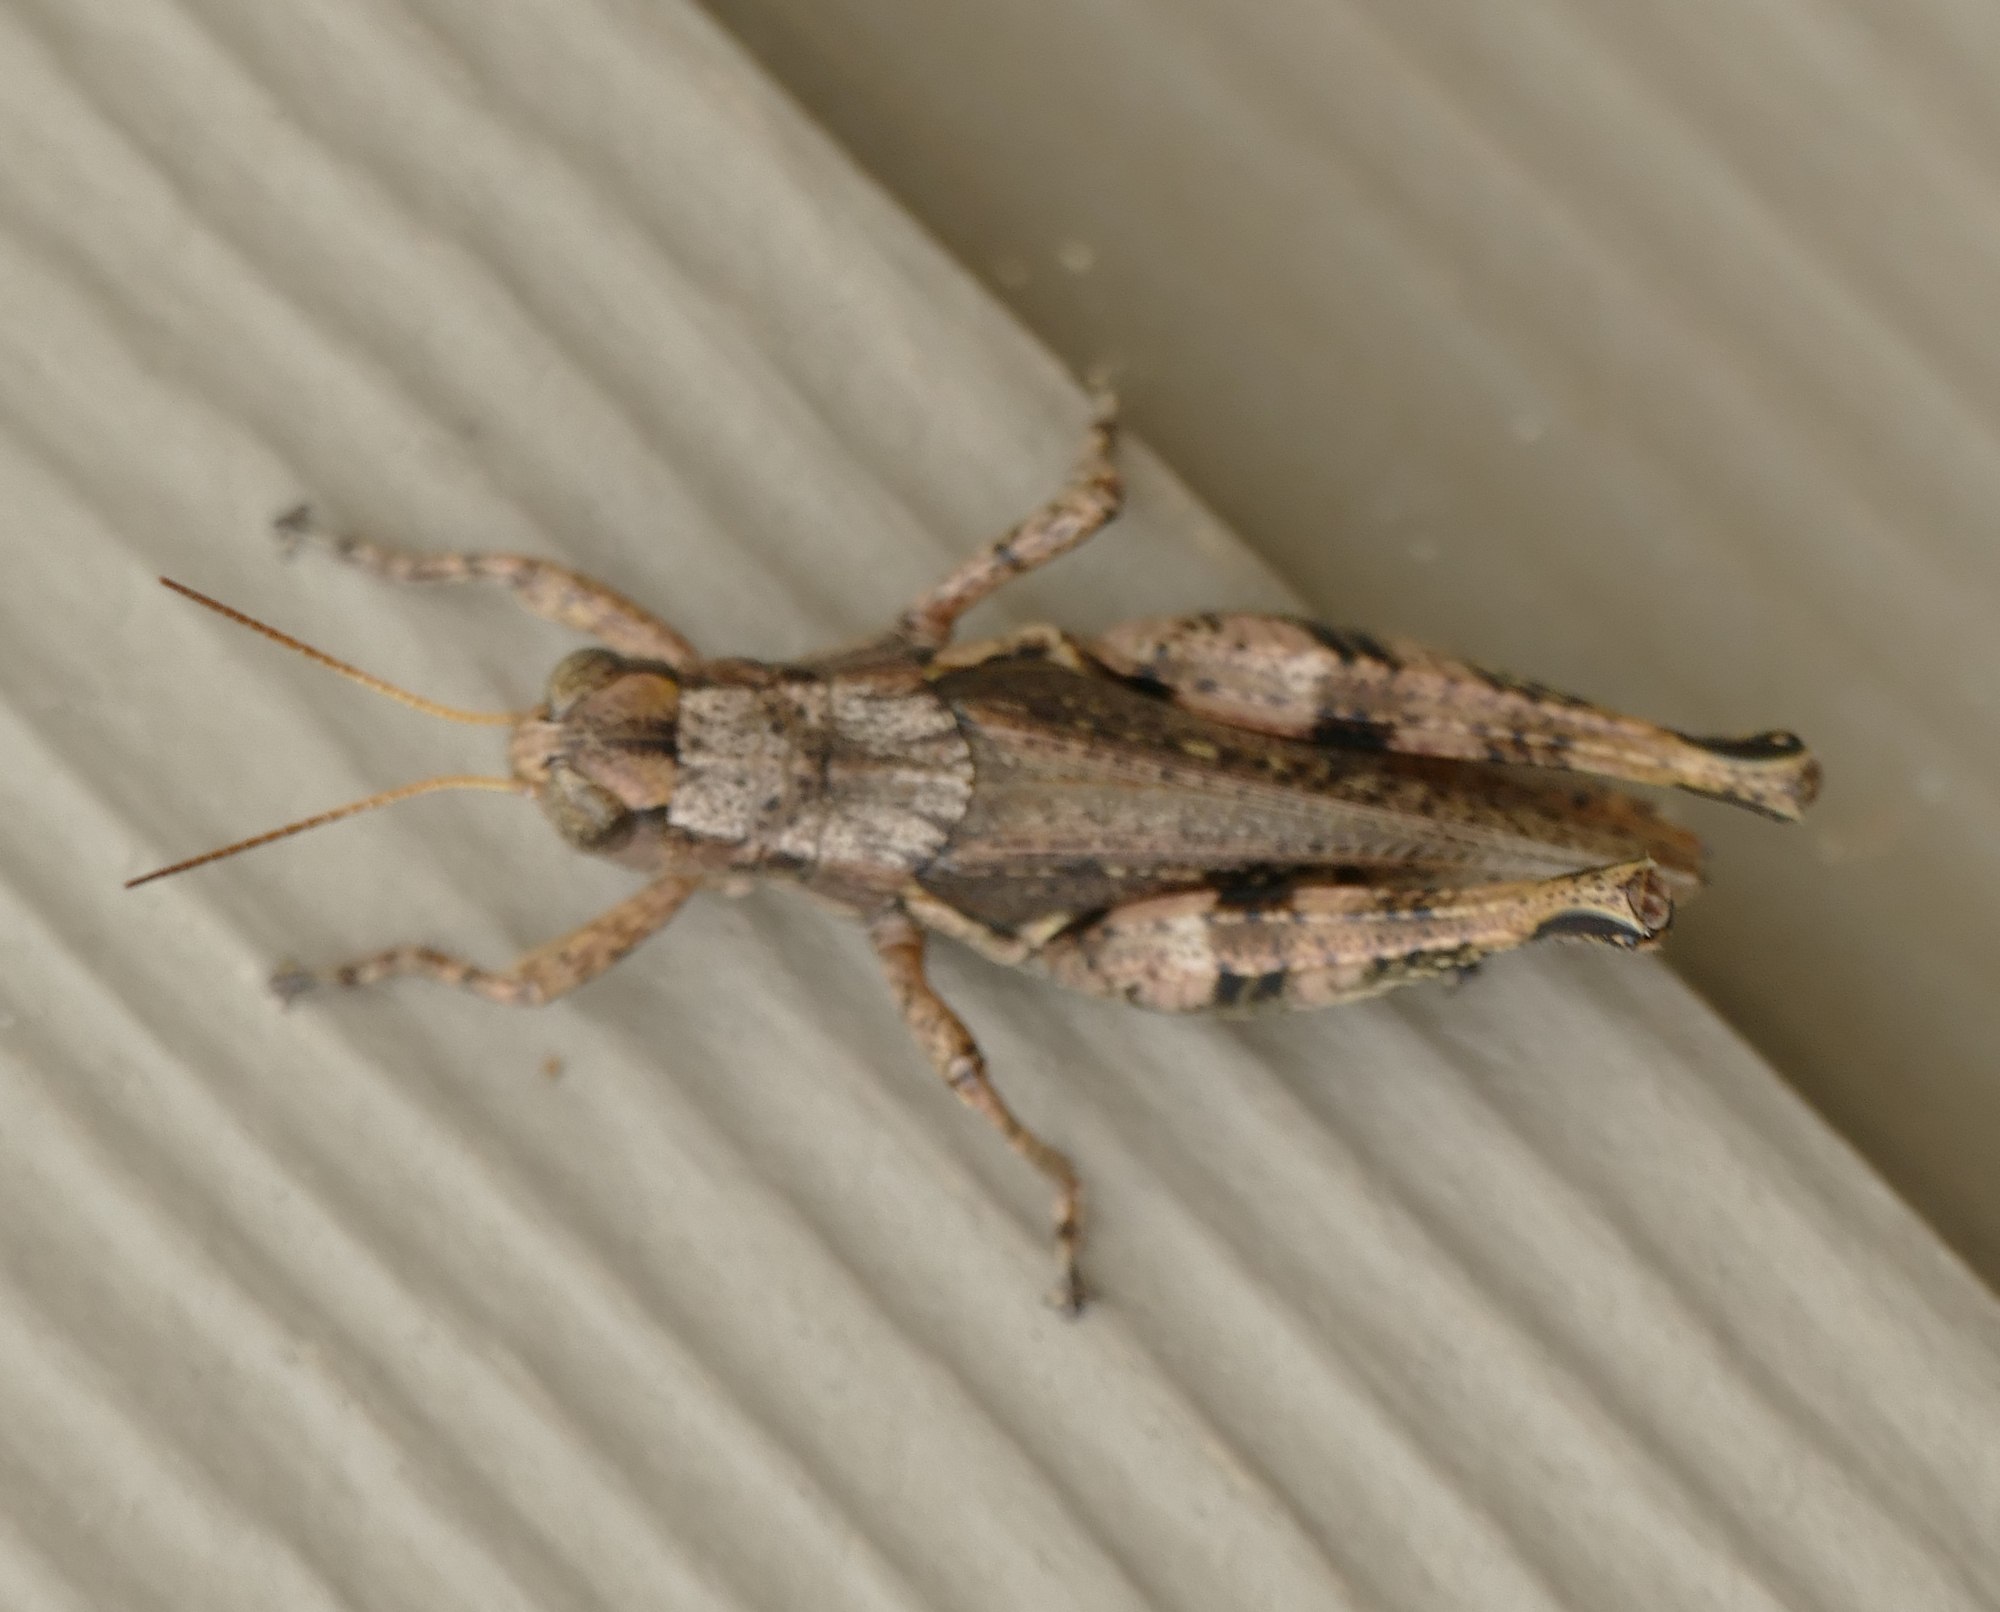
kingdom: Animalia
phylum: Arthropoda
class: Insecta
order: Orthoptera
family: Acrididae
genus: Melanoplus
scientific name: Melanoplus ponderosus
